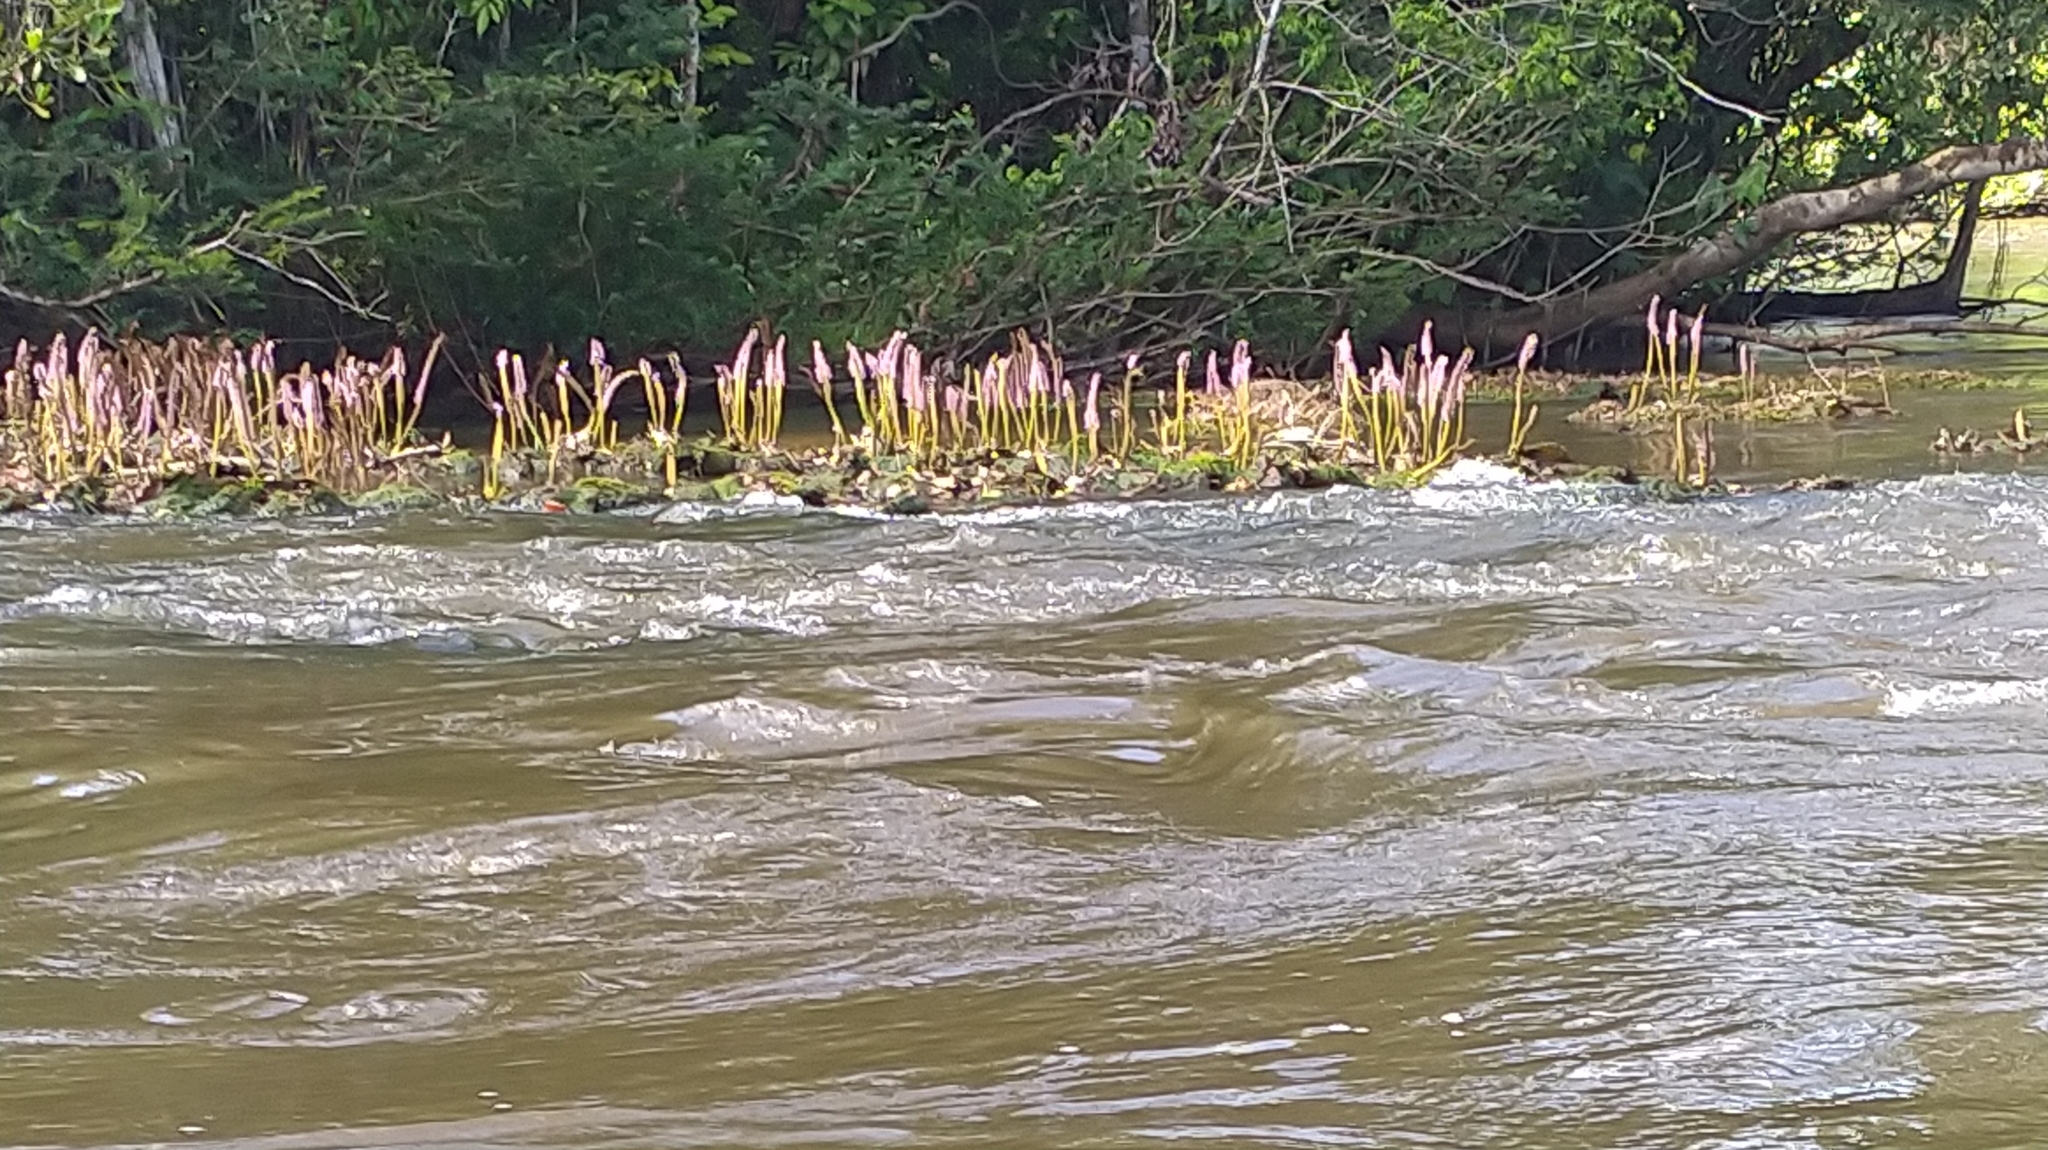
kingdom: Plantae
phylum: Tracheophyta
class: Magnoliopsida
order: Malpighiales
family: Podostemaceae
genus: Mourera
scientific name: Mourera fluviatilis
